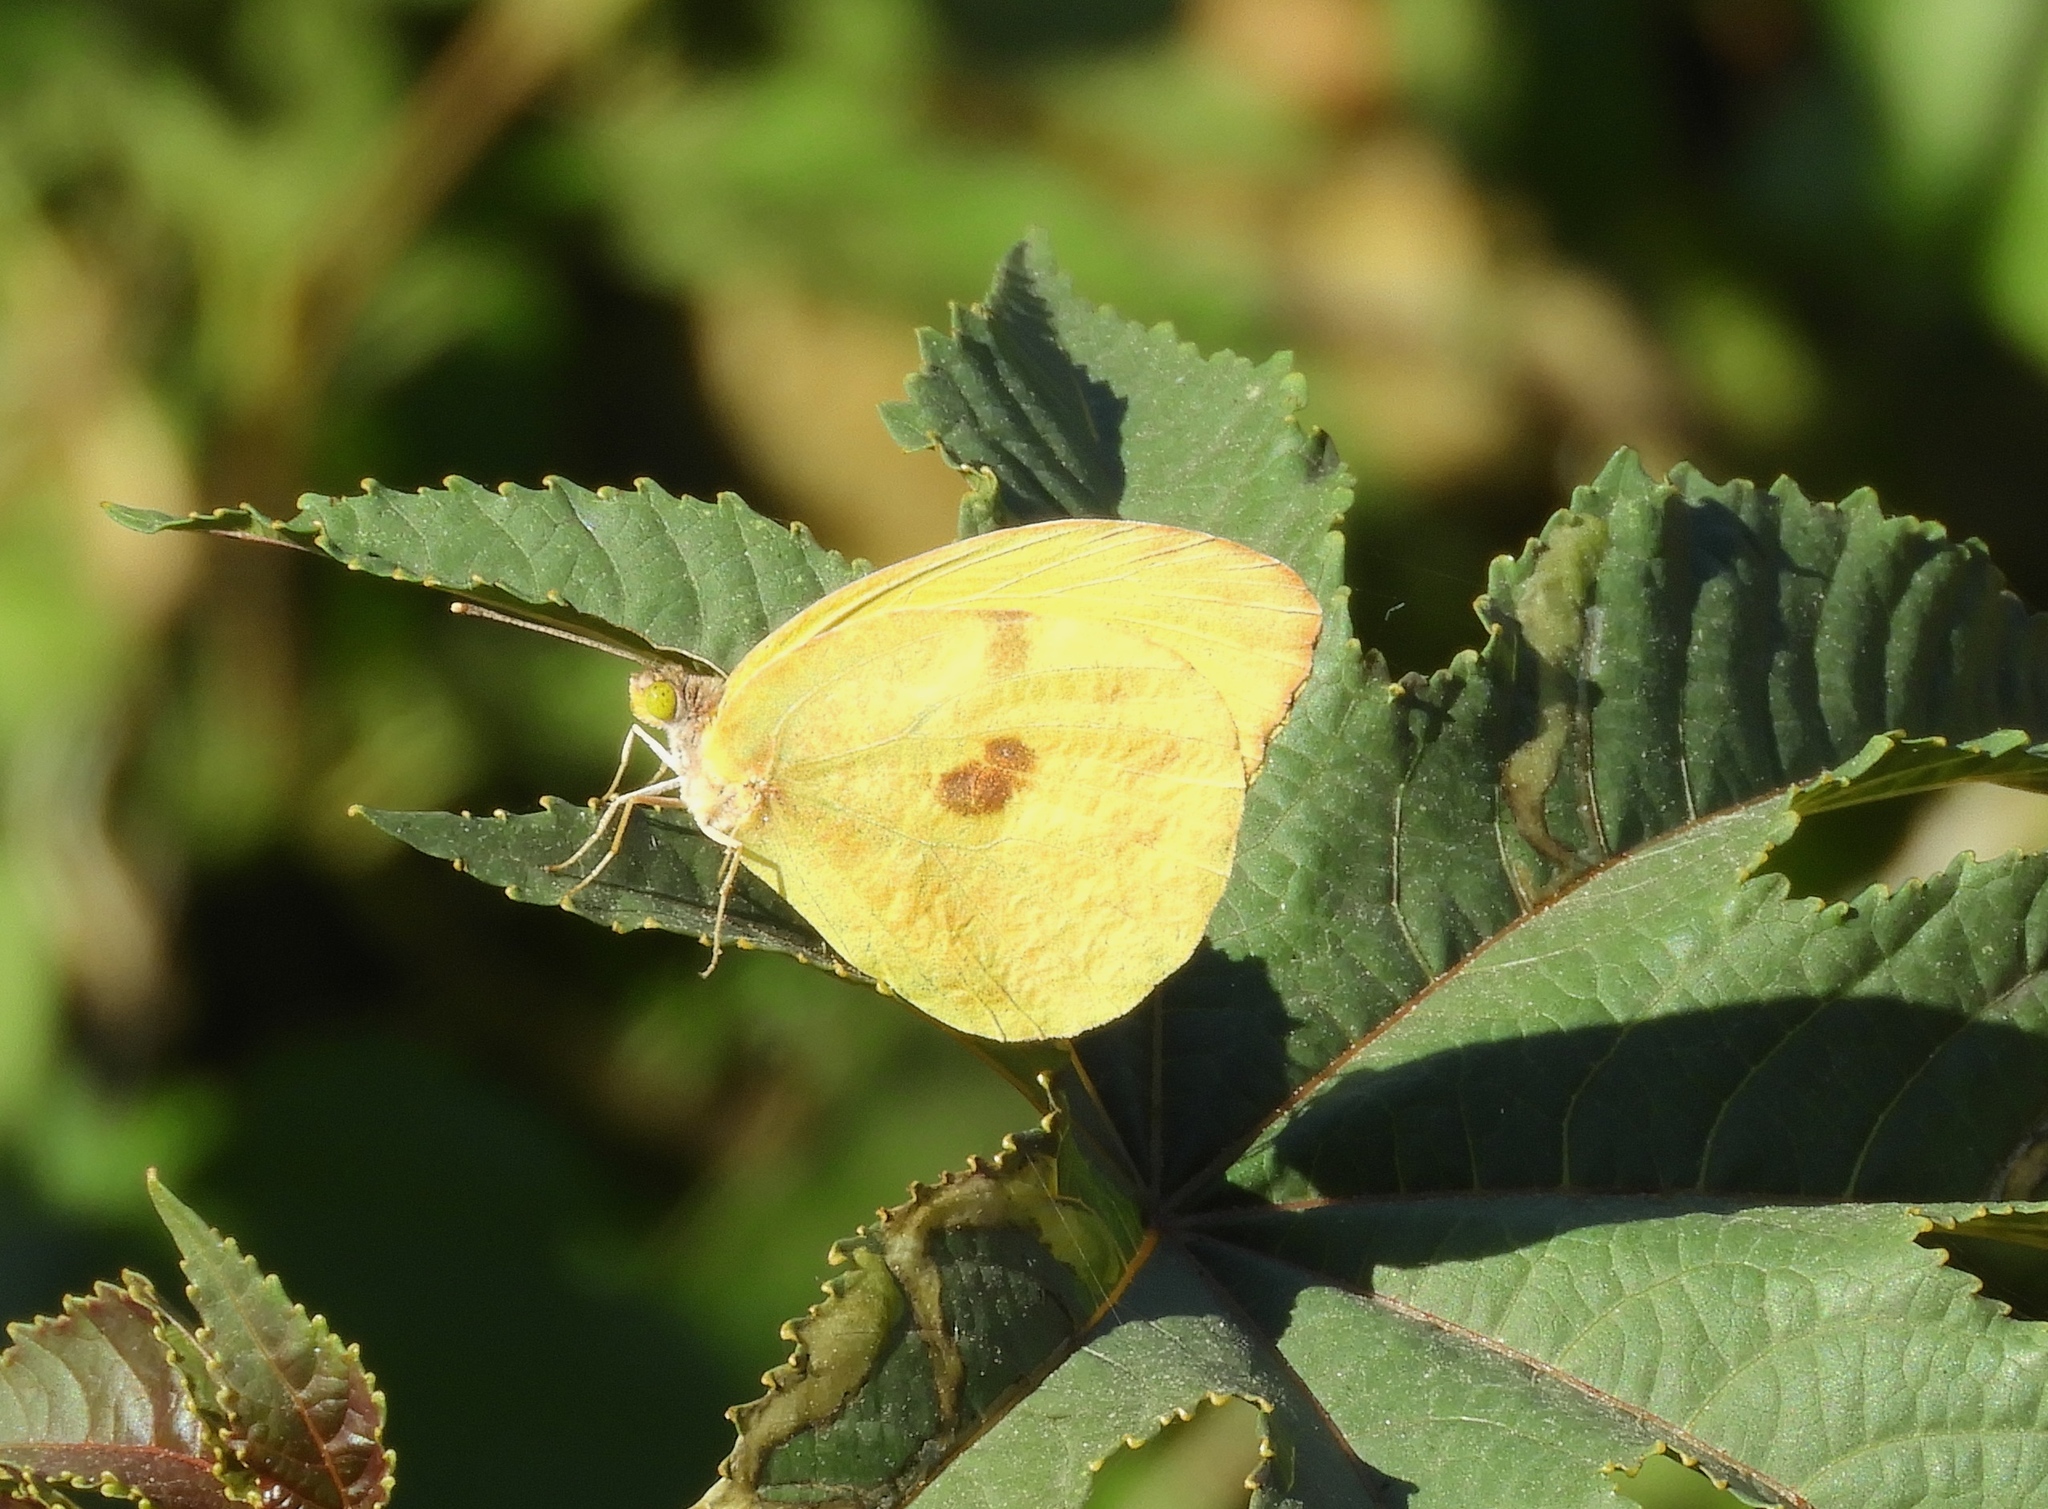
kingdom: Animalia
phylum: Arthropoda
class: Insecta
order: Lepidoptera
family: Pieridae
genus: Prestonia
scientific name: Prestonia clarki
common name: West-mexican sulphur
